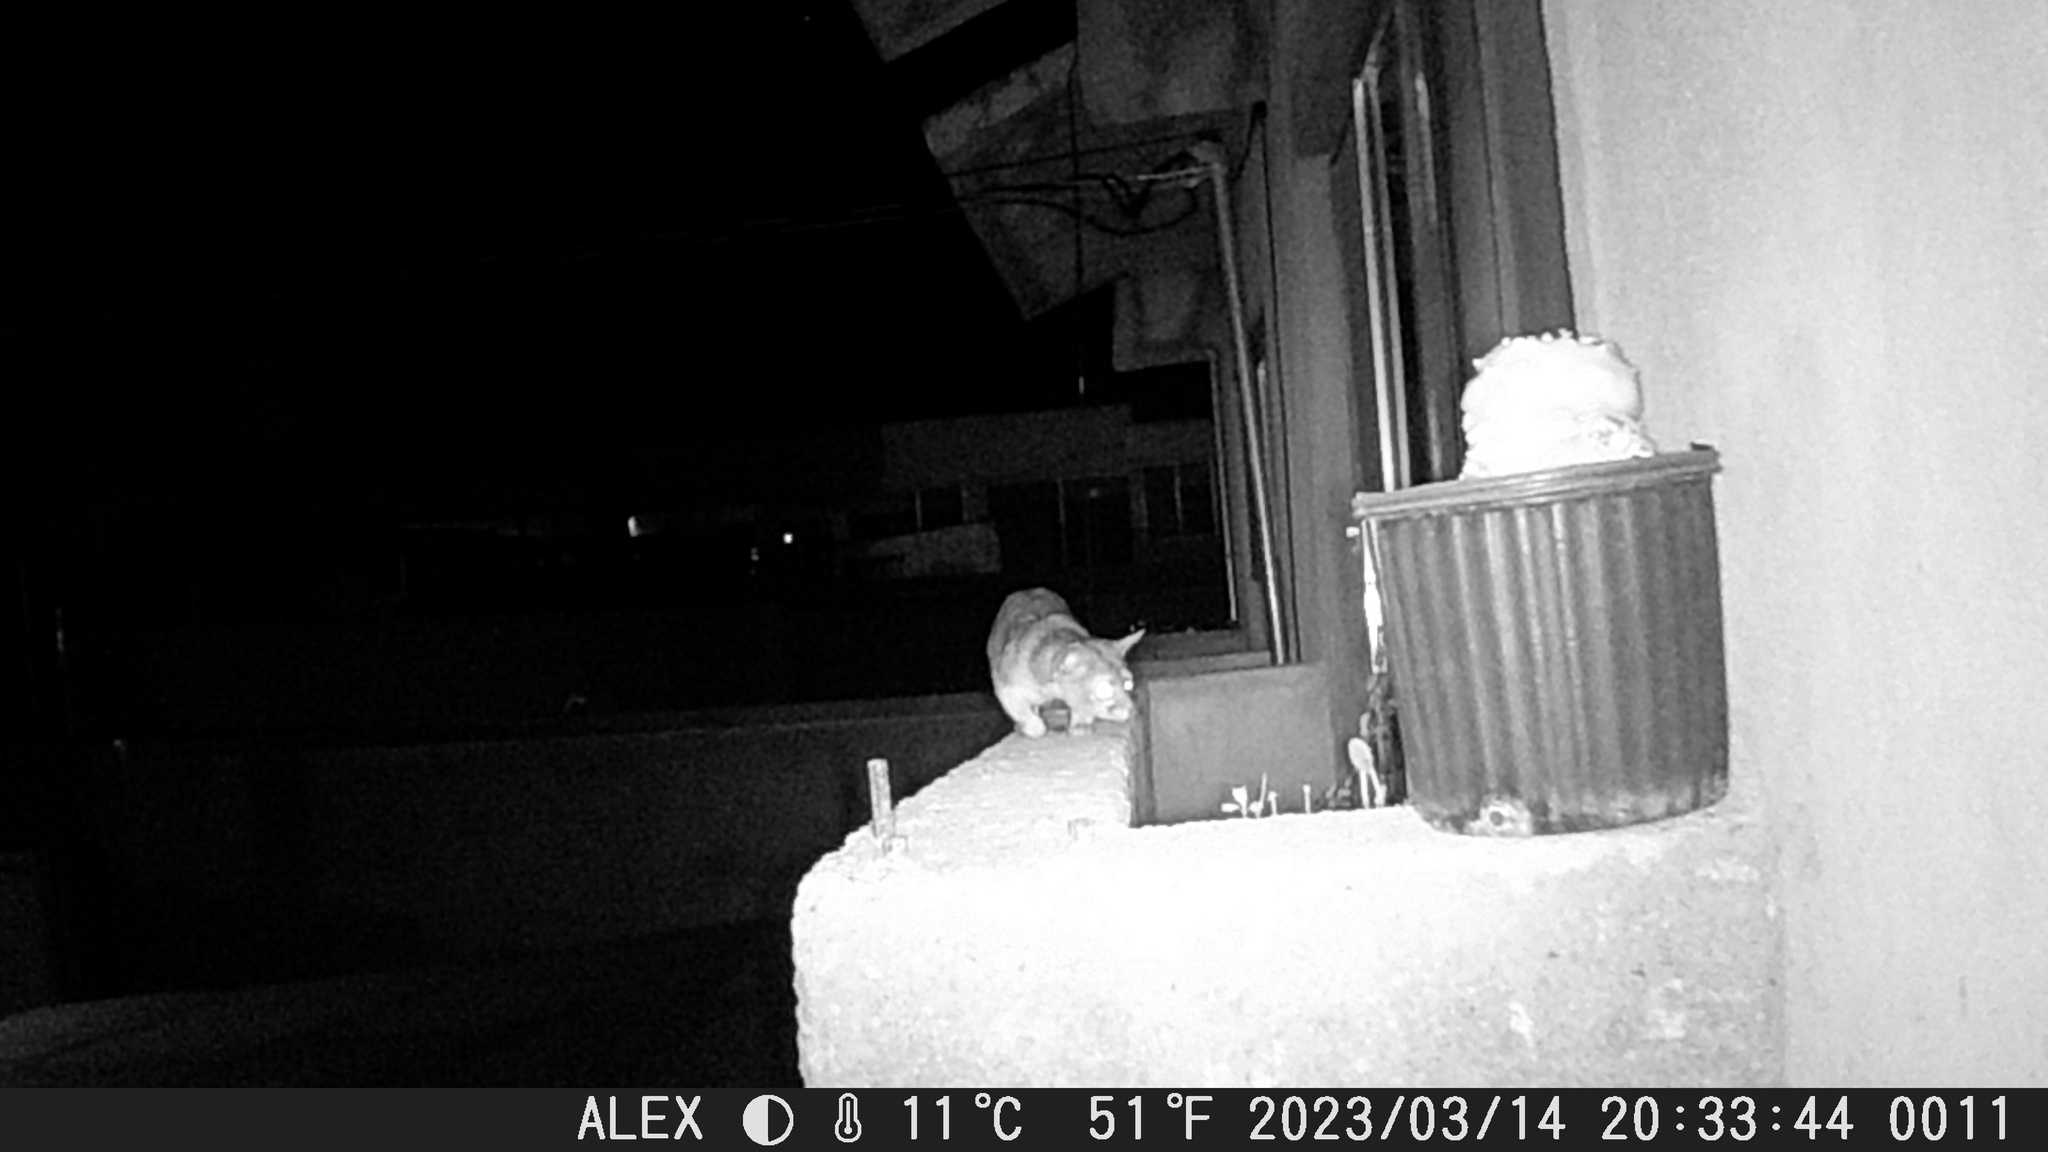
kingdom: Animalia
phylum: Chordata
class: Mammalia
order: Carnivora
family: Procyonidae
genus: Bassariscus
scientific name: Bassariscus astutus
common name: Ringtail
